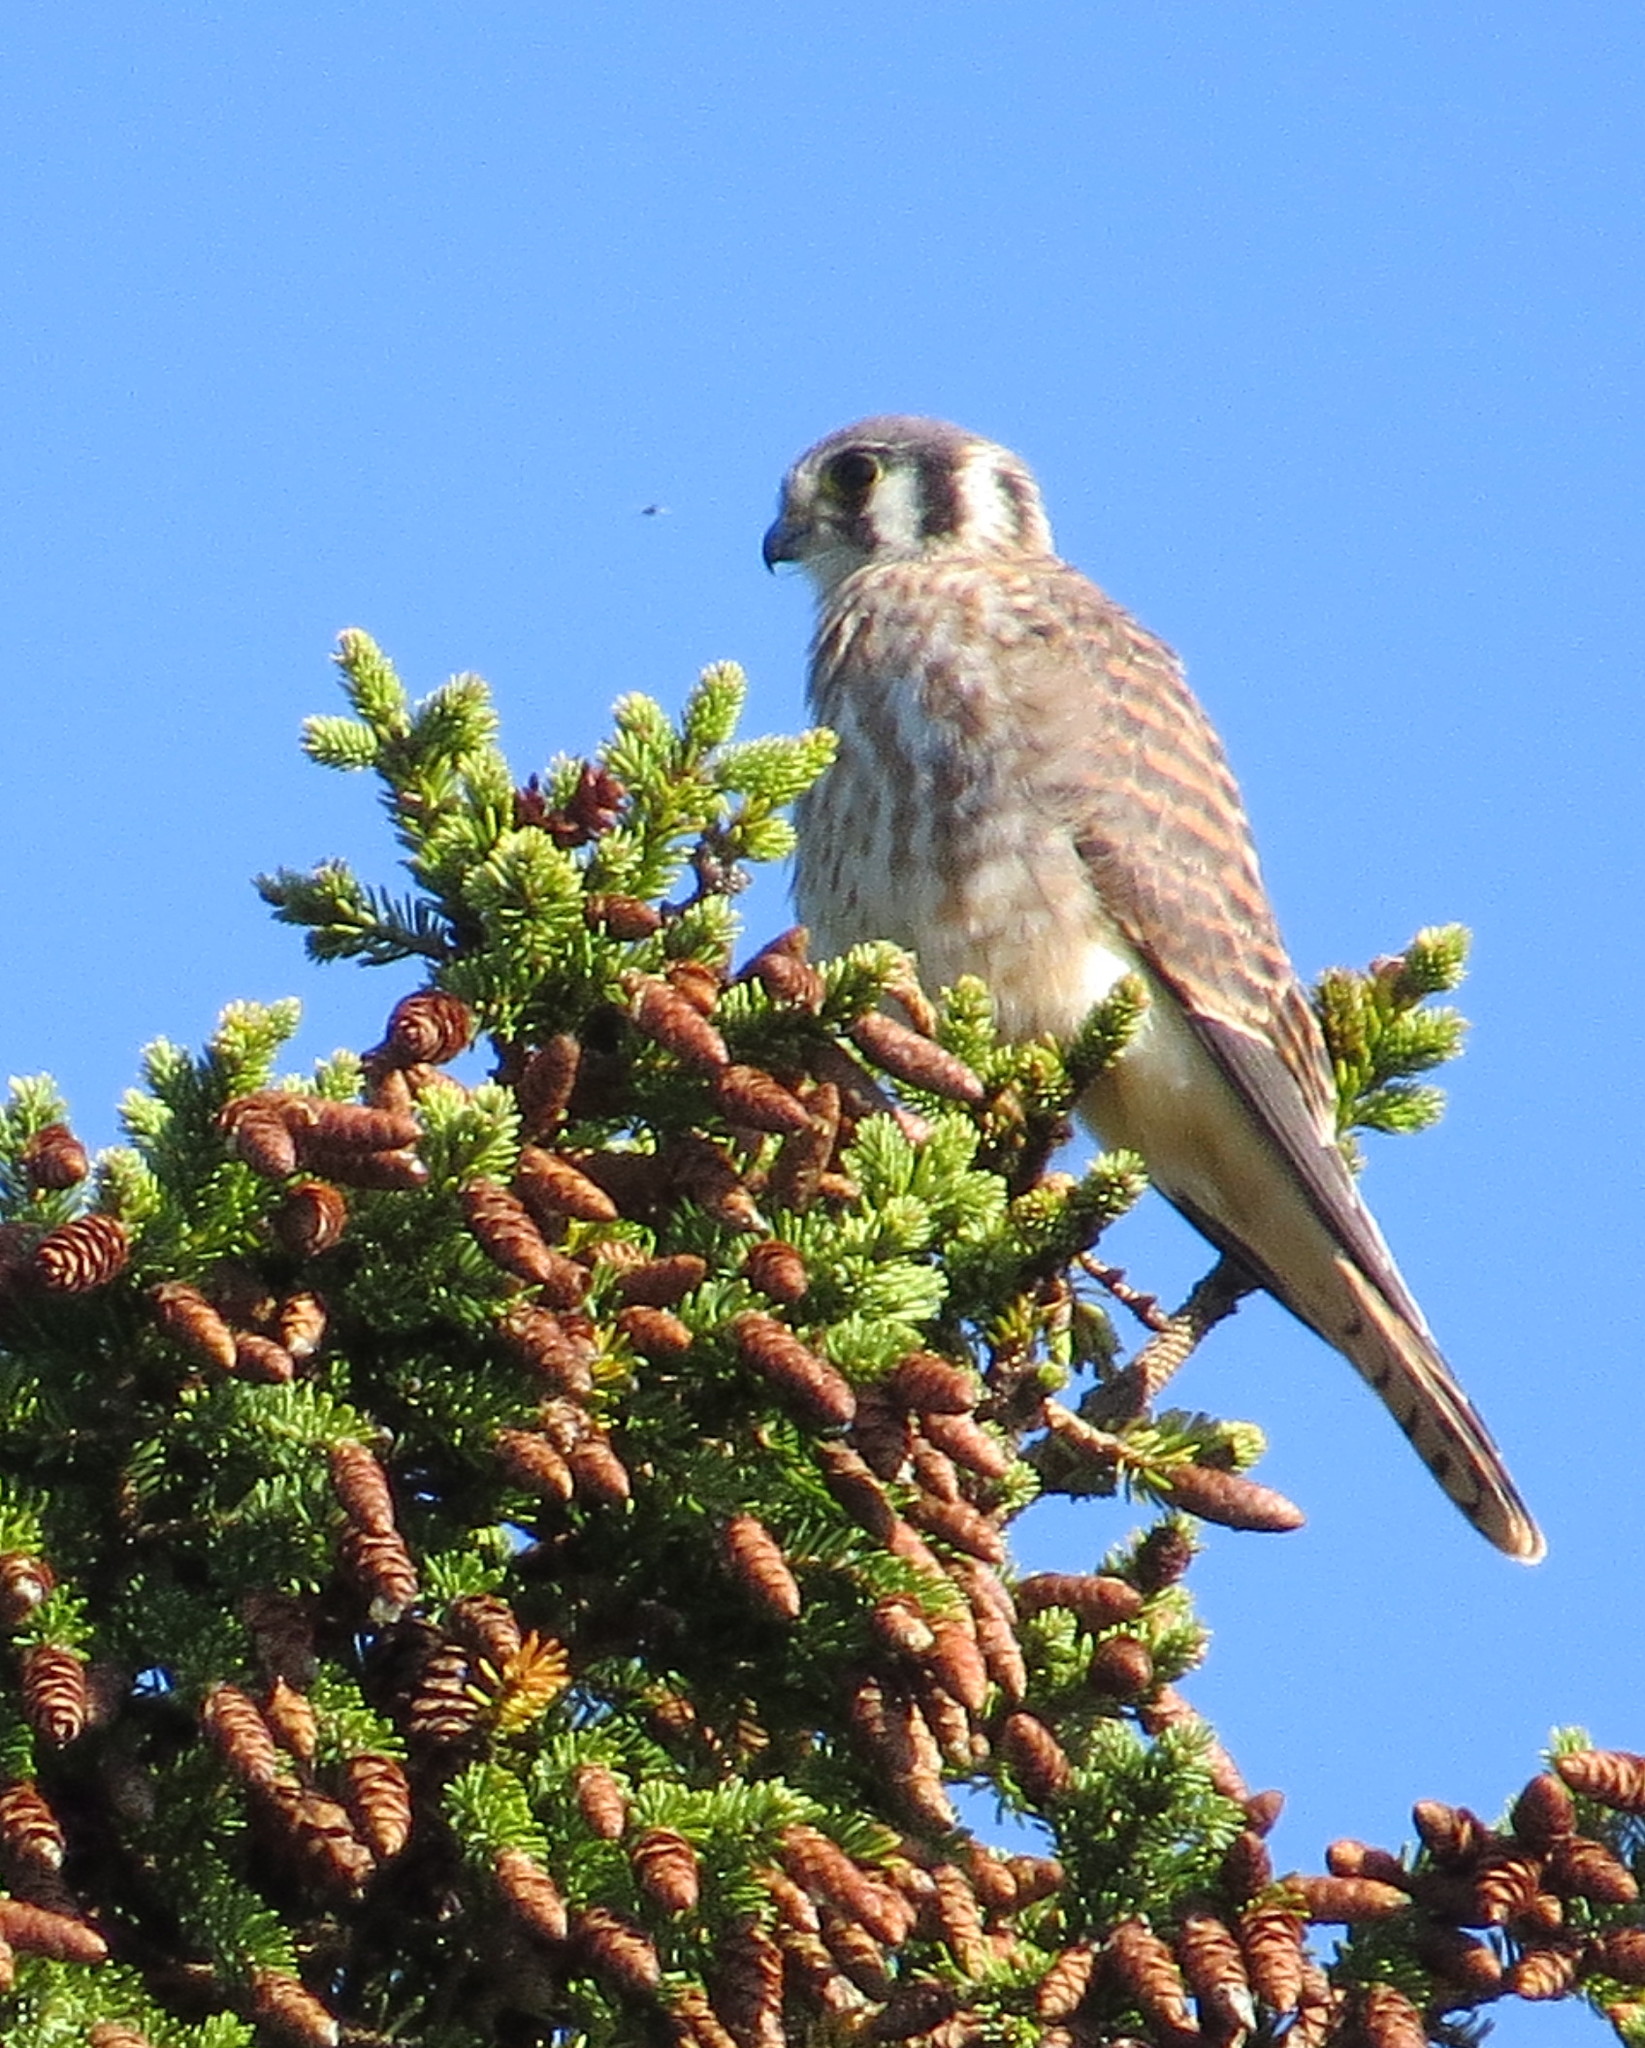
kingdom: Animalia
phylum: Chordata
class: Aves
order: Falconiformes
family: Falconidae
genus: Falco
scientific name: Falco sparverius
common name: American kestrel
